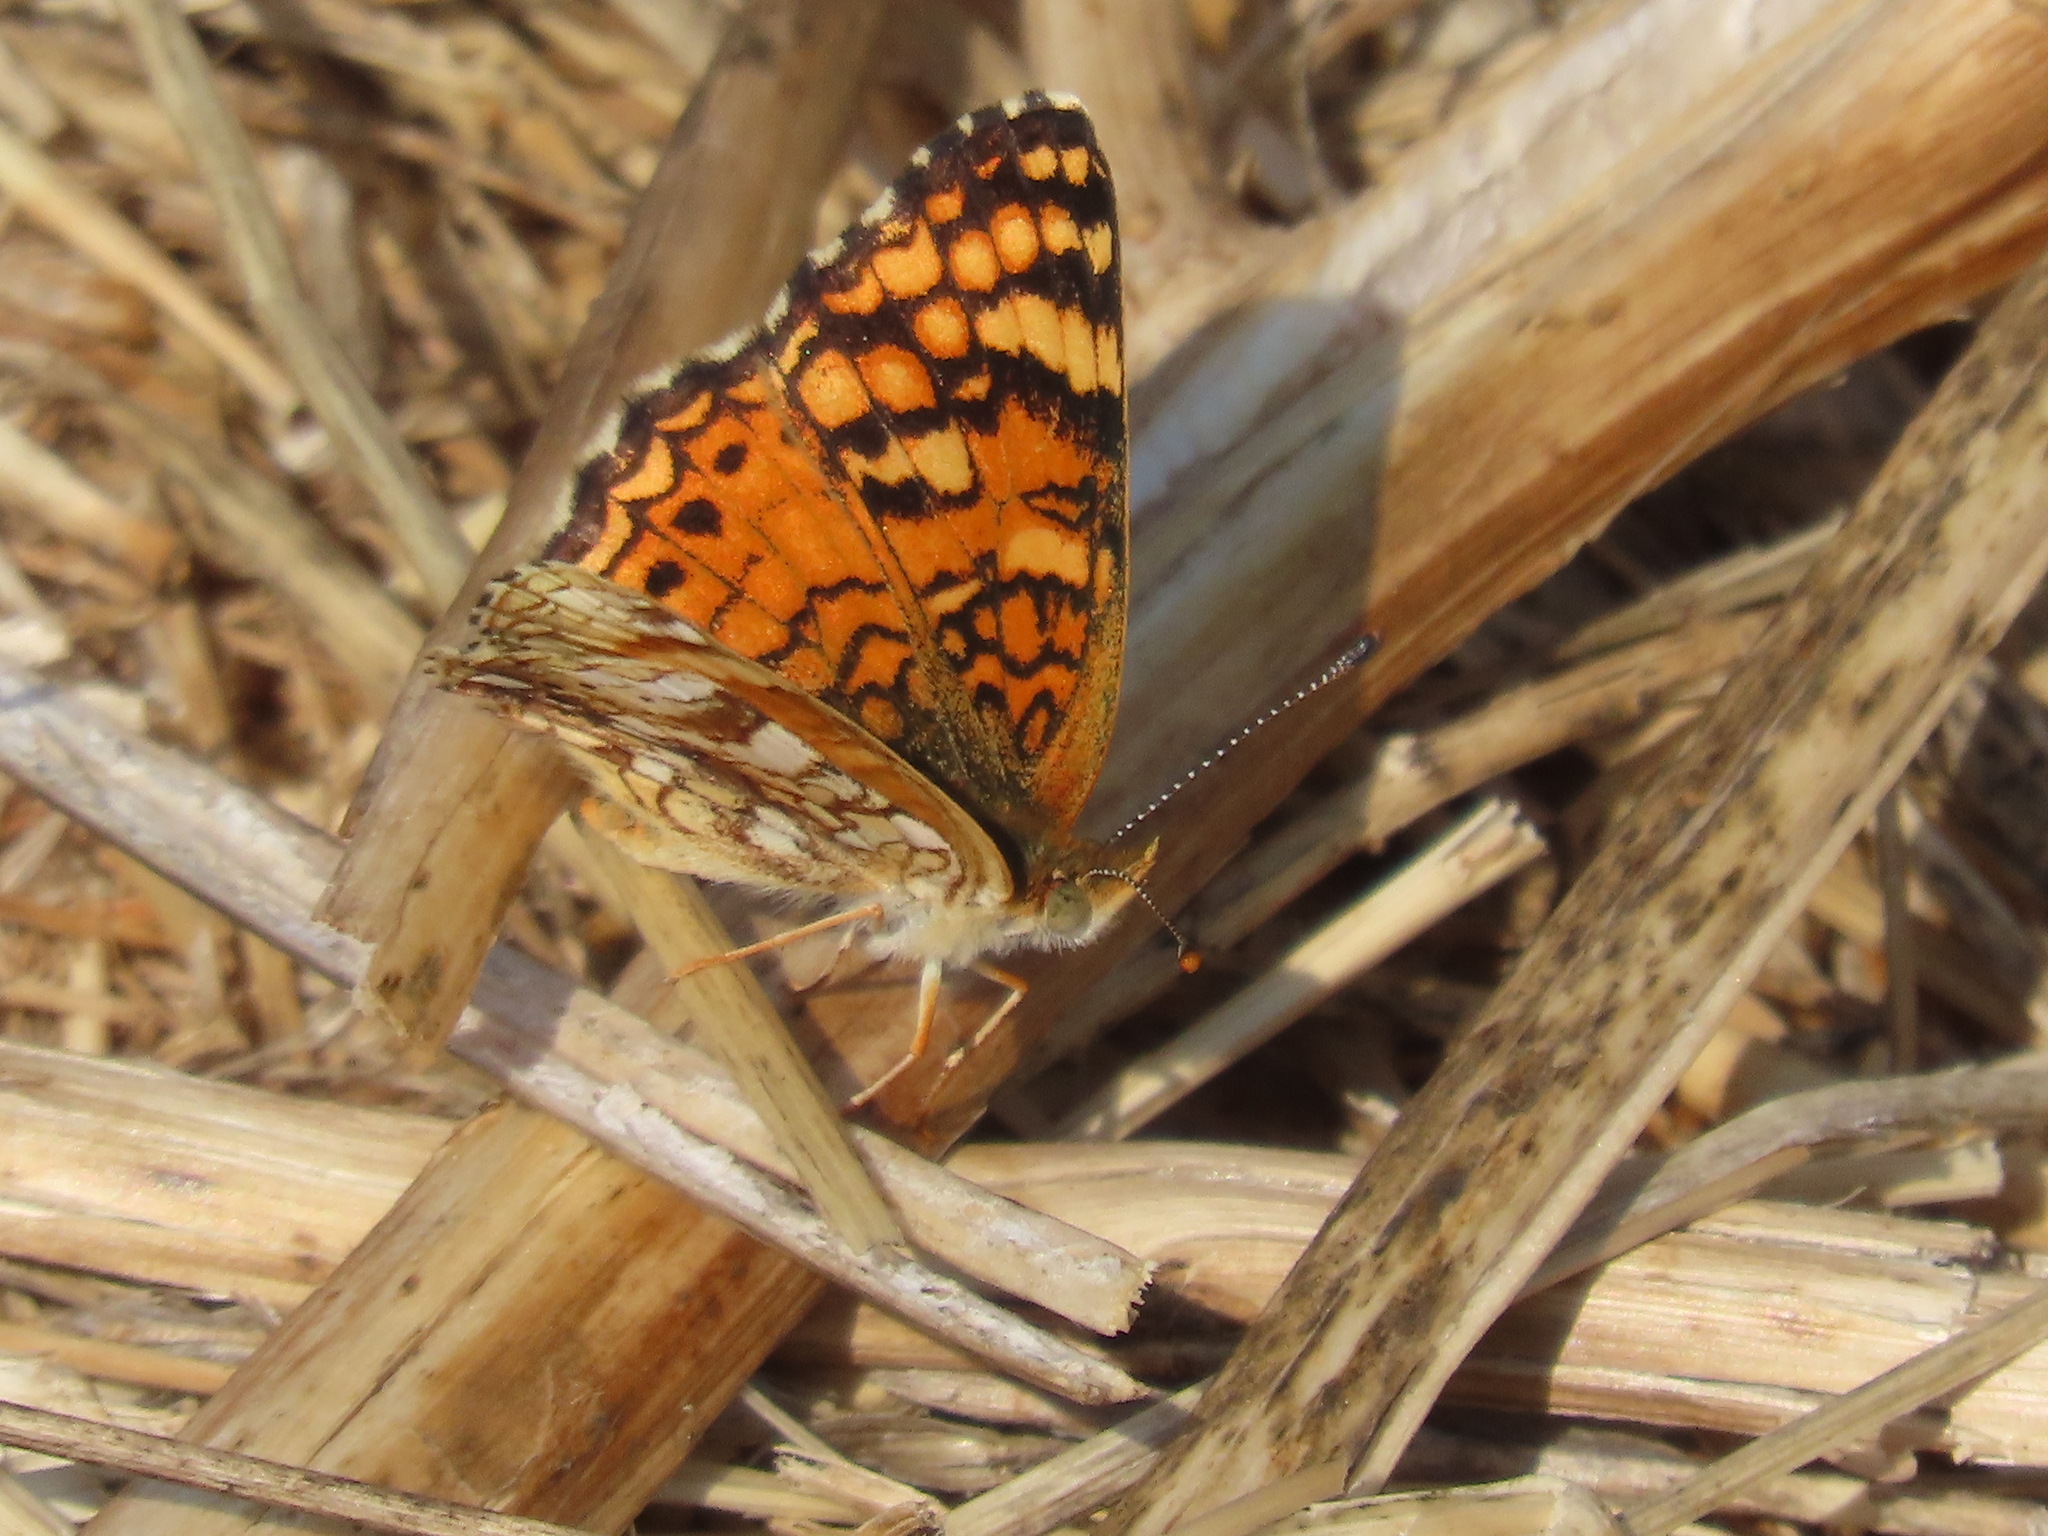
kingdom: Animalia
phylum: Arthropoda
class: Insecta
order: Lepidoptera
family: Nymphalidae
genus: Eresia
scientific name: Eresia aveyrona
